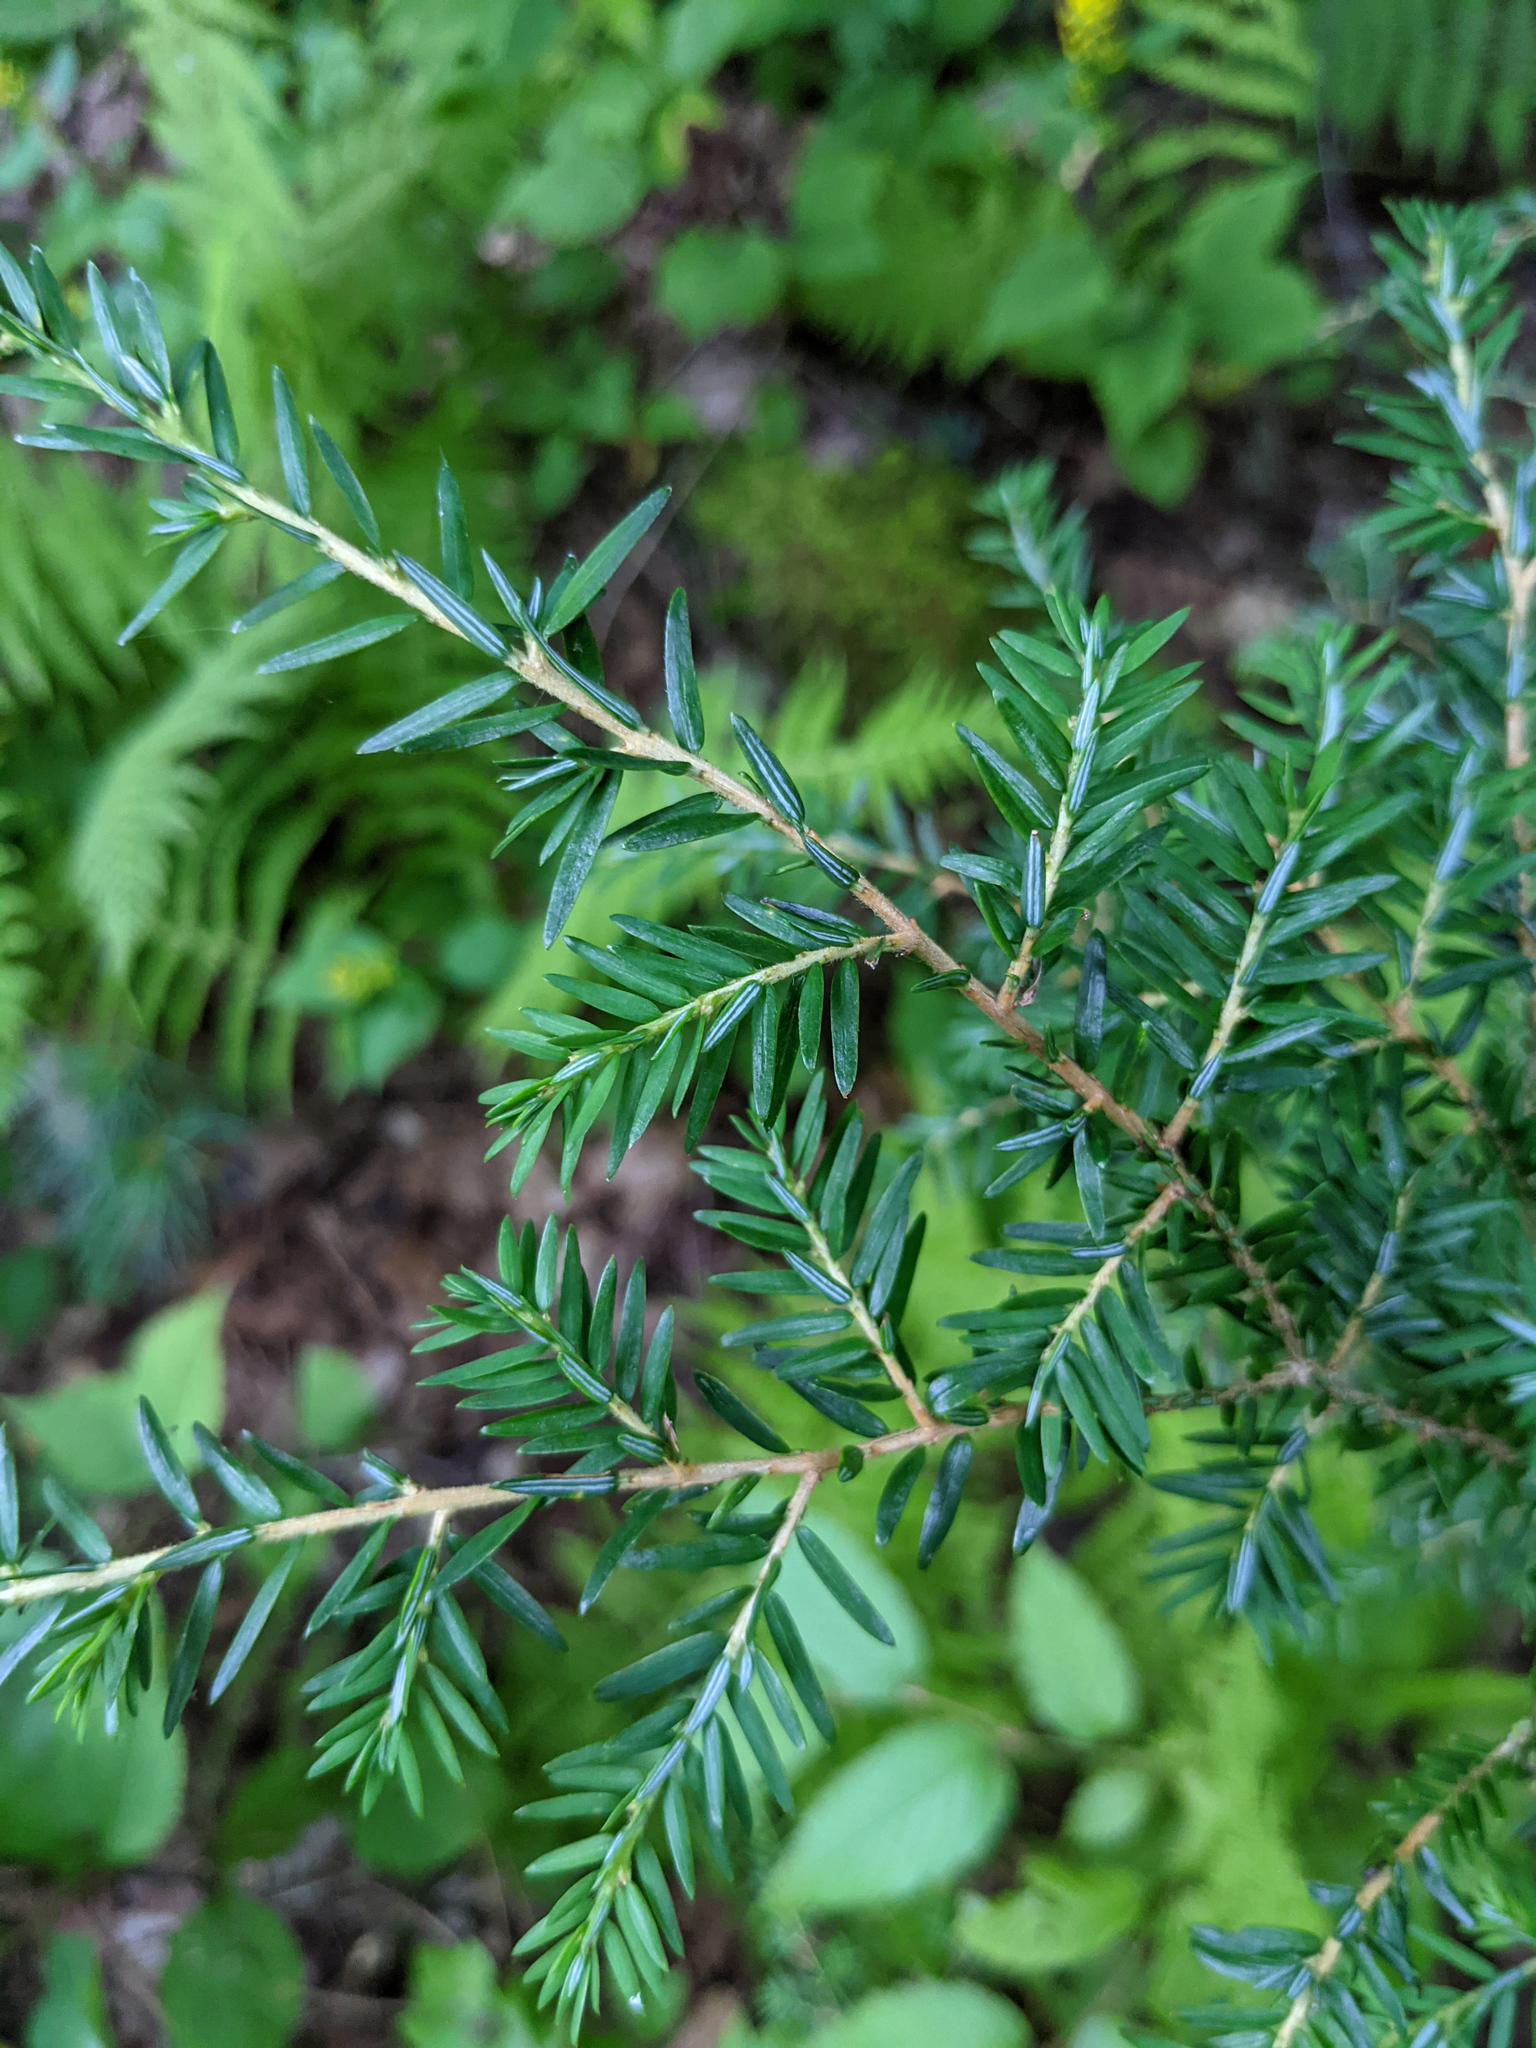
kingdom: Plantae
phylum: Tracheophyta
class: Pinopsida
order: Pinales
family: Pinaceae
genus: Tsuga
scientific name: Tsuga canadensis
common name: Eastern hemlock
